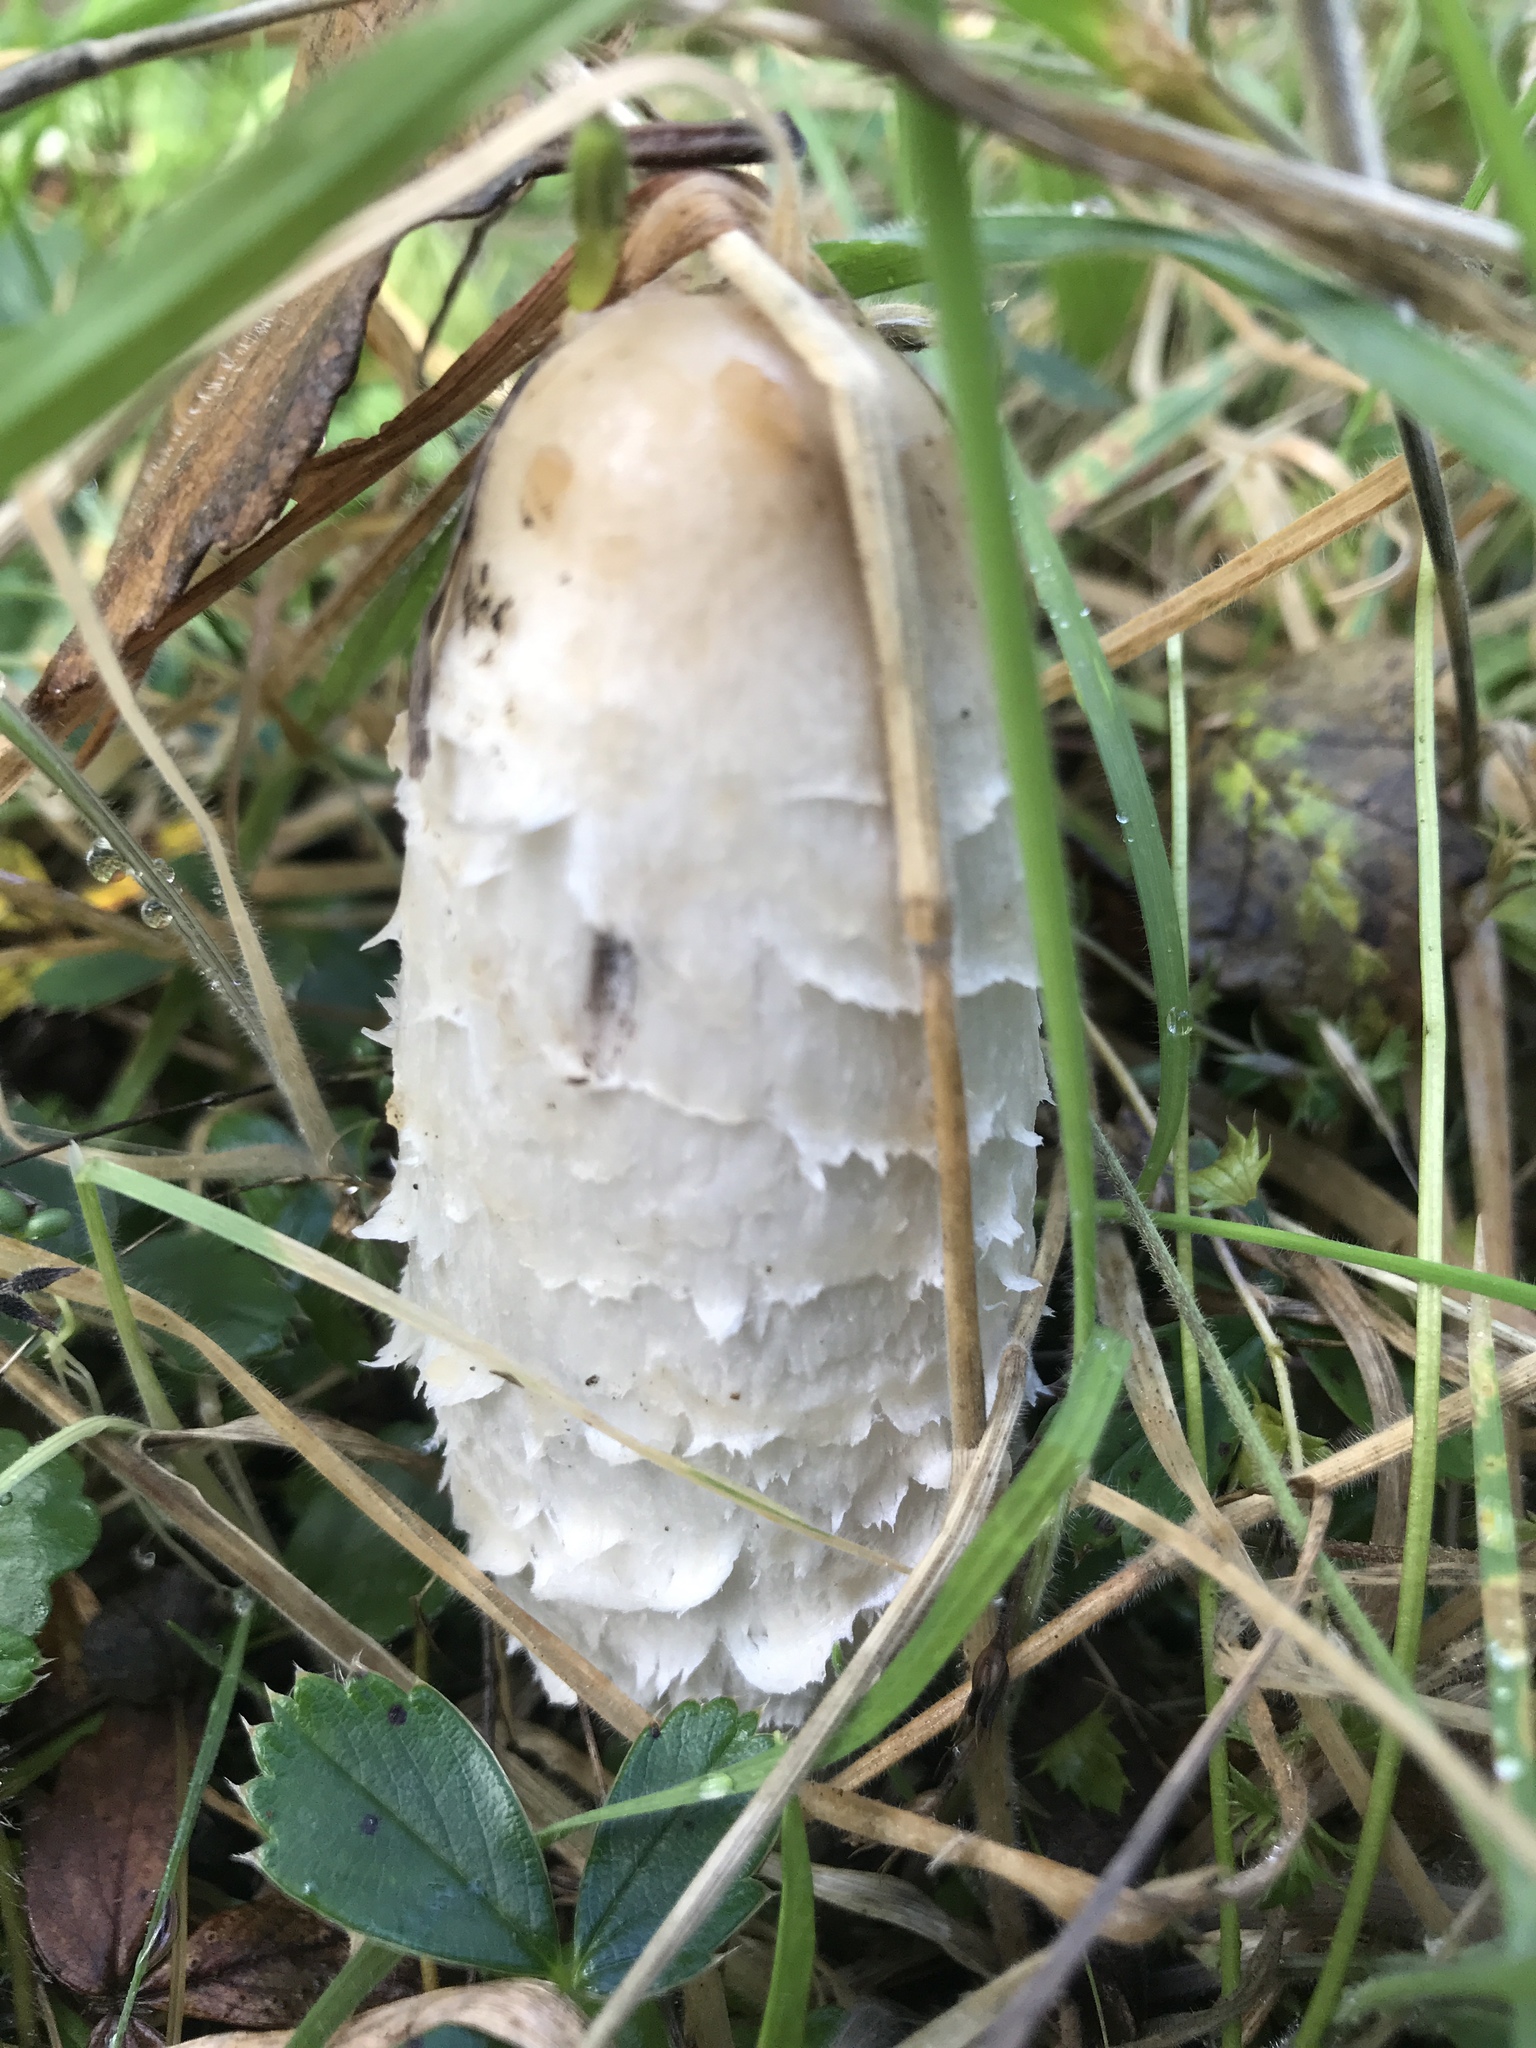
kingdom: Fungi
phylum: Basidiomycota
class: Agaricomycetes
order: Agaricales
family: Agaricaceae
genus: Coprinus
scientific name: Coprinus comatus
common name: Lawyer's wig
